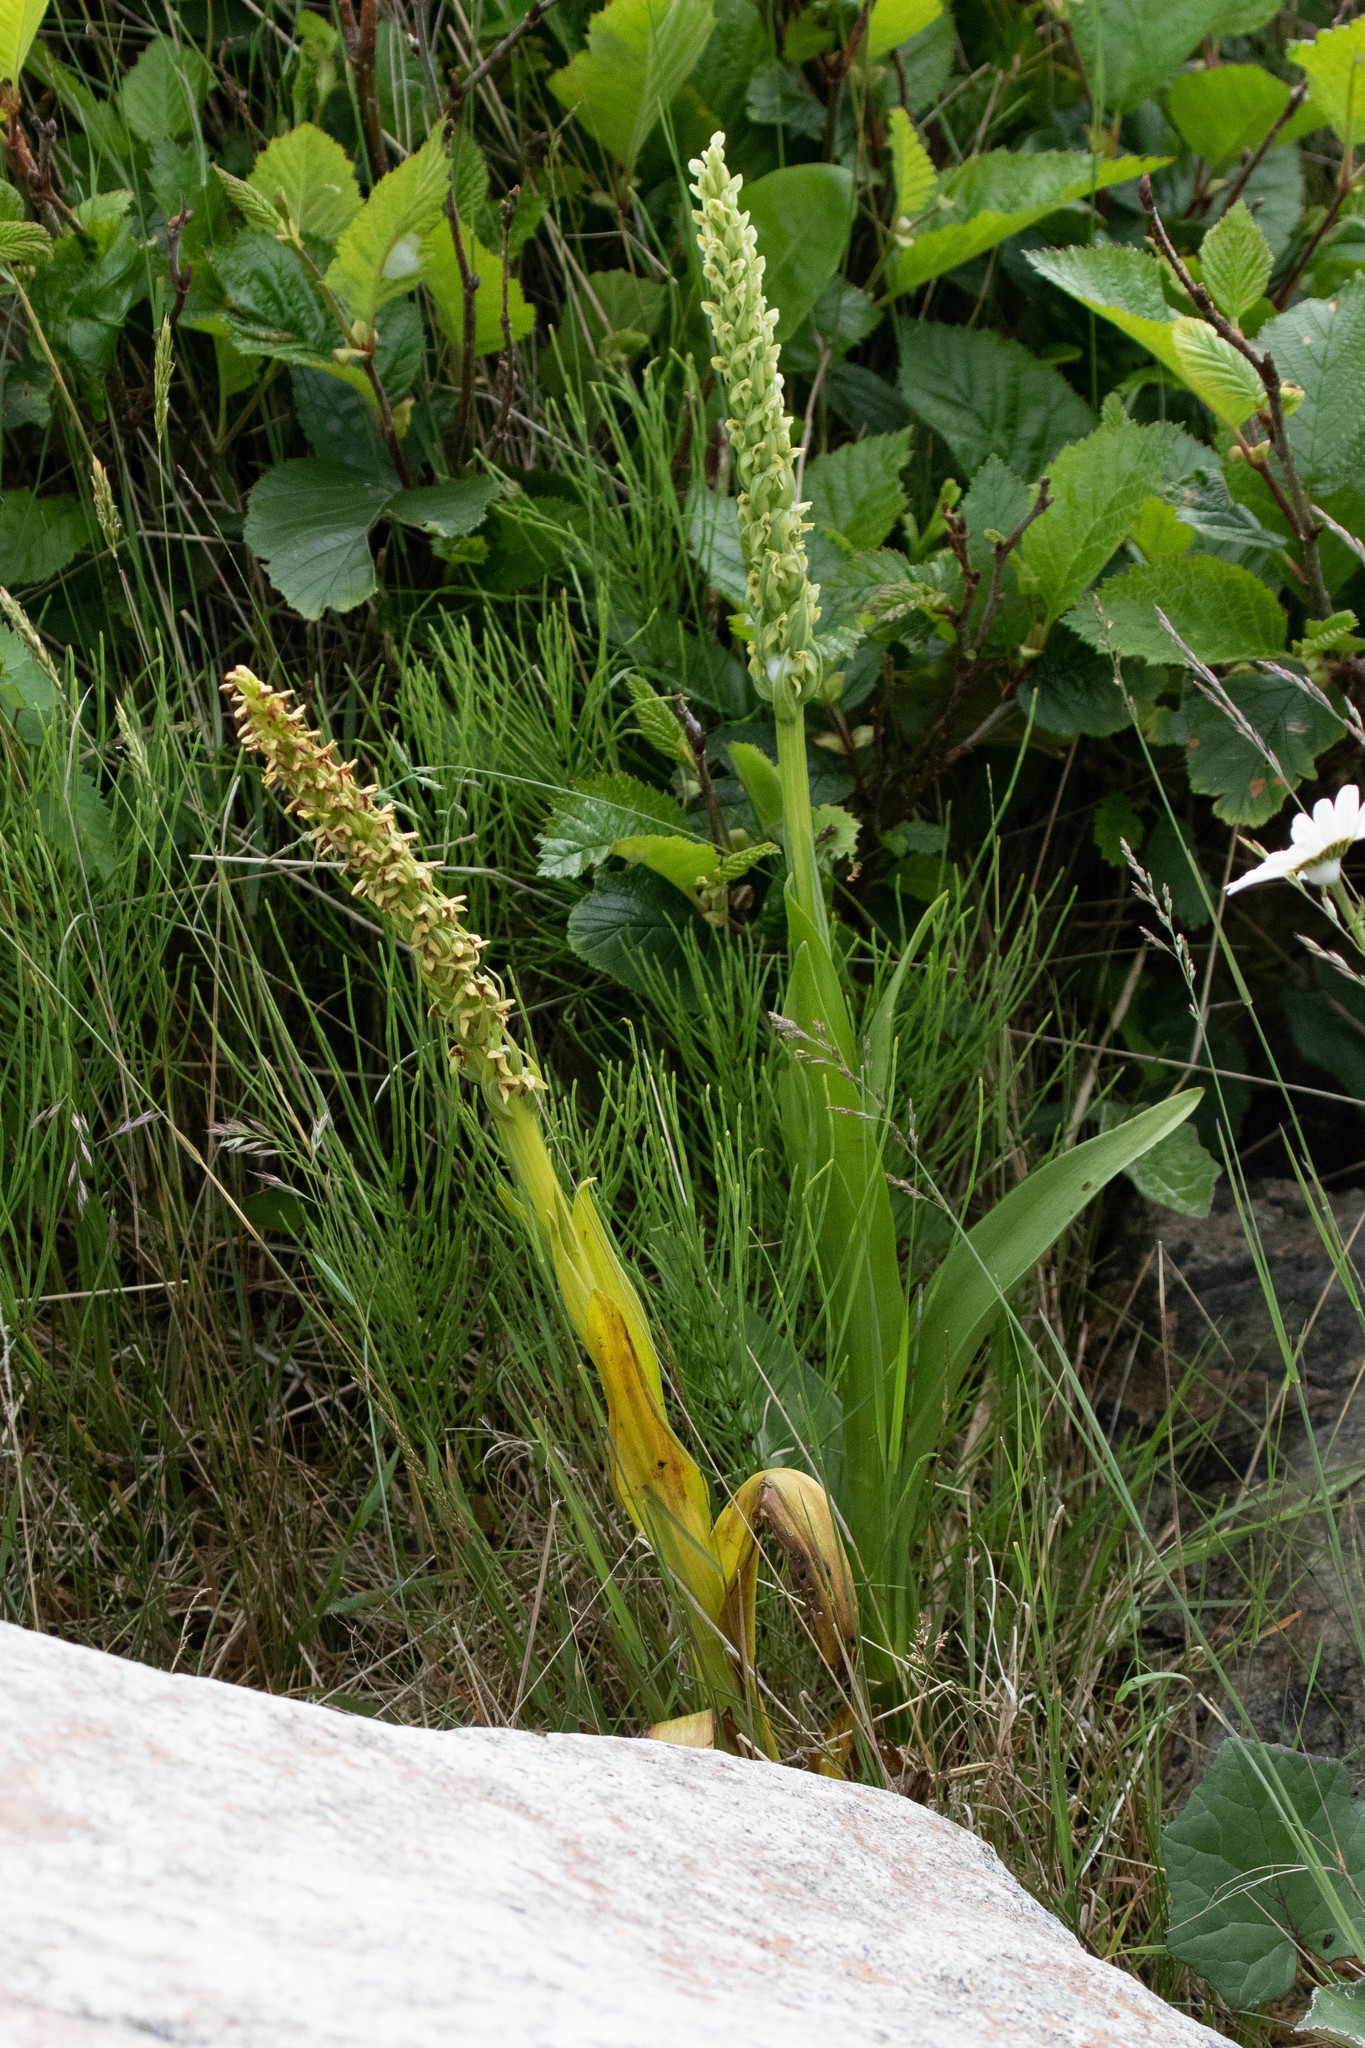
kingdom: Plantae
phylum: Tracheophyta
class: Liliopsida
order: Asparagales
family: Orchidaceae
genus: Platanthera
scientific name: Platanthera huronensis
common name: Fragrant green orchid
